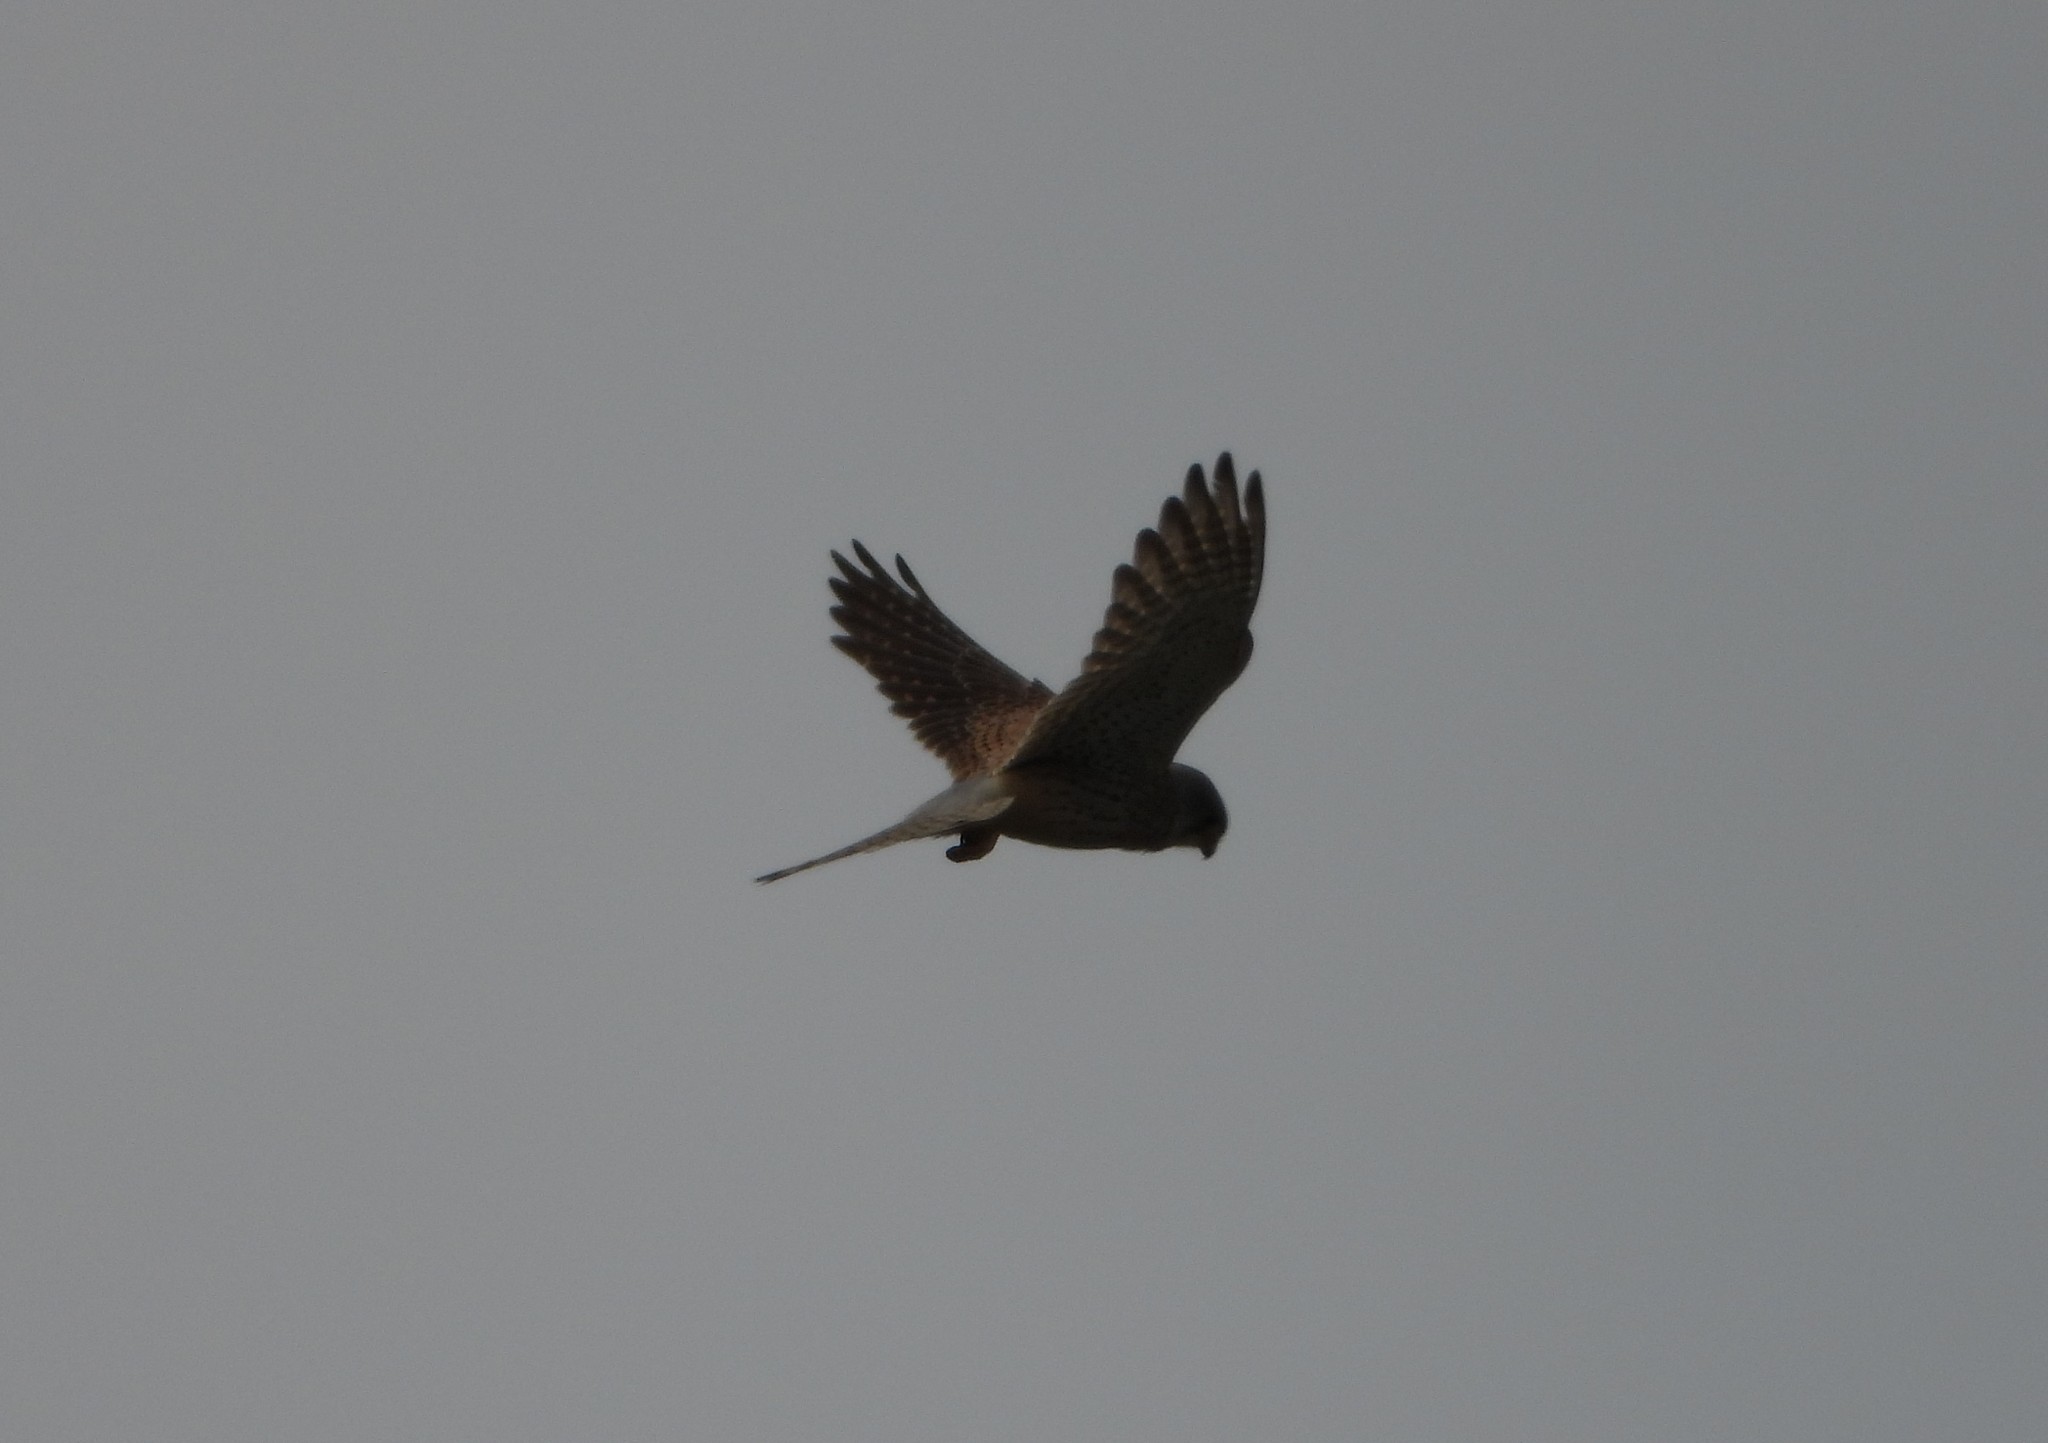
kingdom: Animalia
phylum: Chordata
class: Aves
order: Falconiformes
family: Falconidae
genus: Falco
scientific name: Falco tinnunculus
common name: Common kestrel
